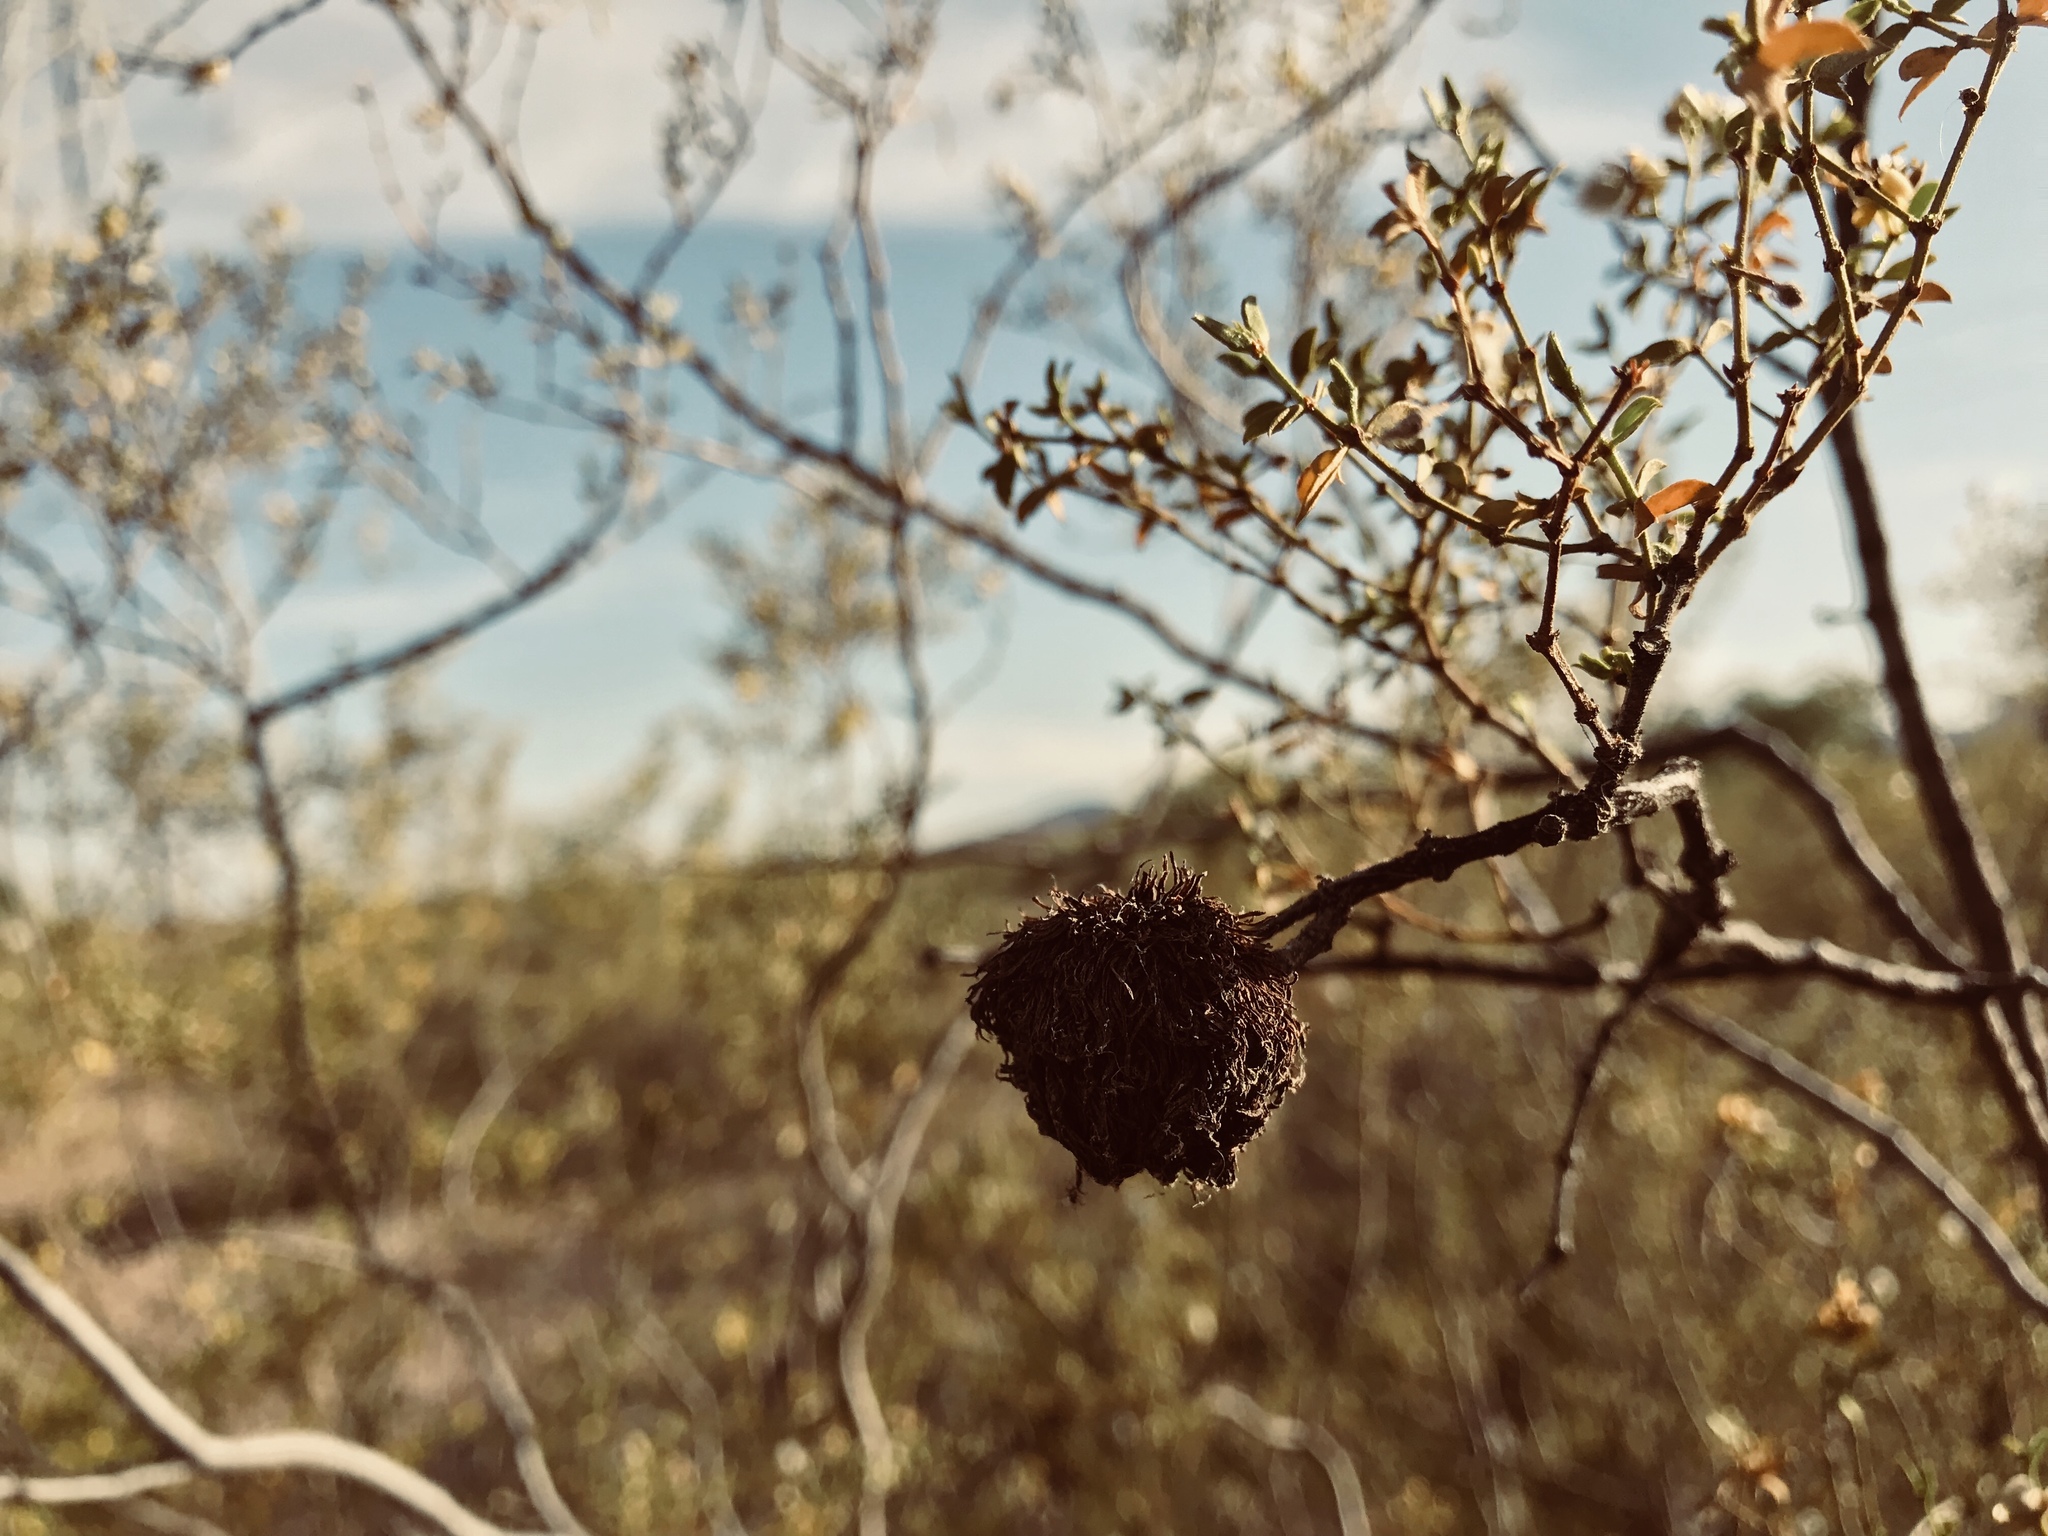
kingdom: Animalia
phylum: Arthropoda
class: Insecta
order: Diptera
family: Cecidomyiidae
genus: Asphondylia
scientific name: Asphondylia auripila
